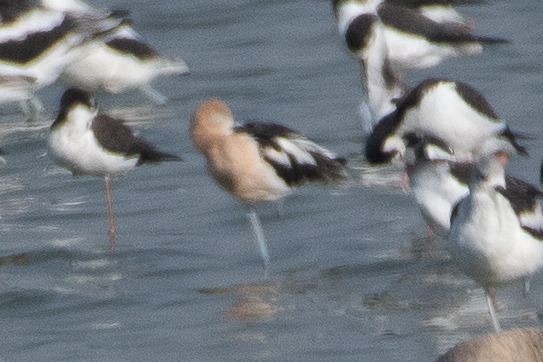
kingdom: Animalia
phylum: Chordata
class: Aves
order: Charadriiformes
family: Recurvirostridae
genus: Recurvirostra
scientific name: Recurvirostra americana
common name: American avocet
